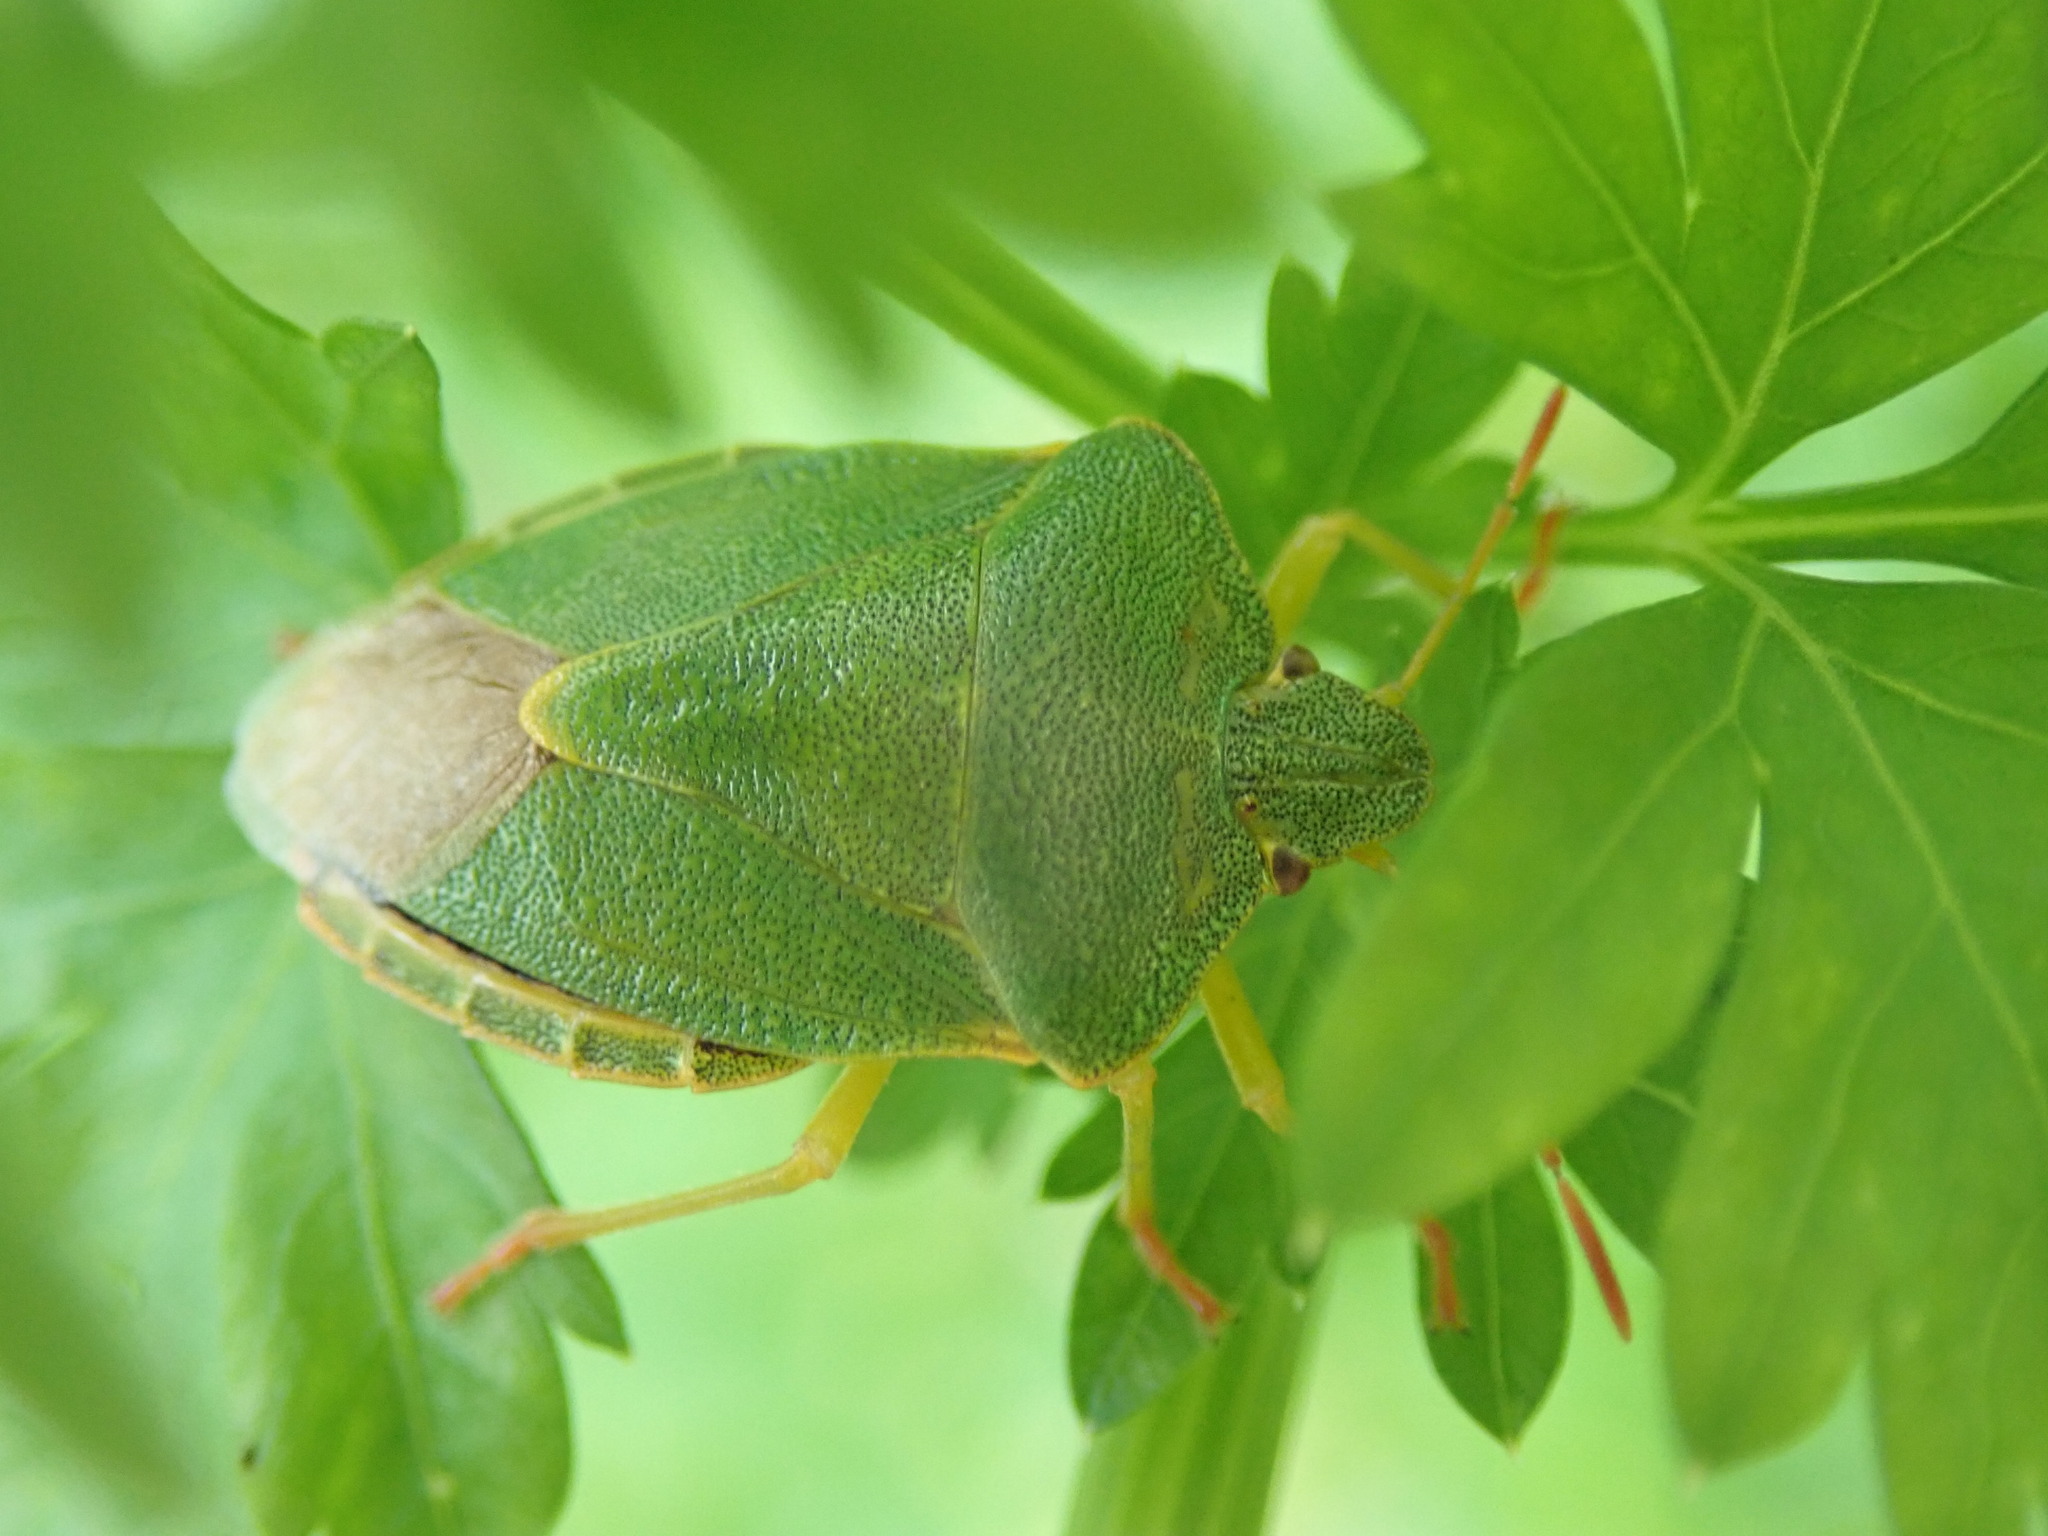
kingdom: Animalia
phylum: Arthropoda
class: Insecta
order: Hemiptera
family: Pentatomidae
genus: Palomena
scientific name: Palomena prasina
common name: Green shieldbug
